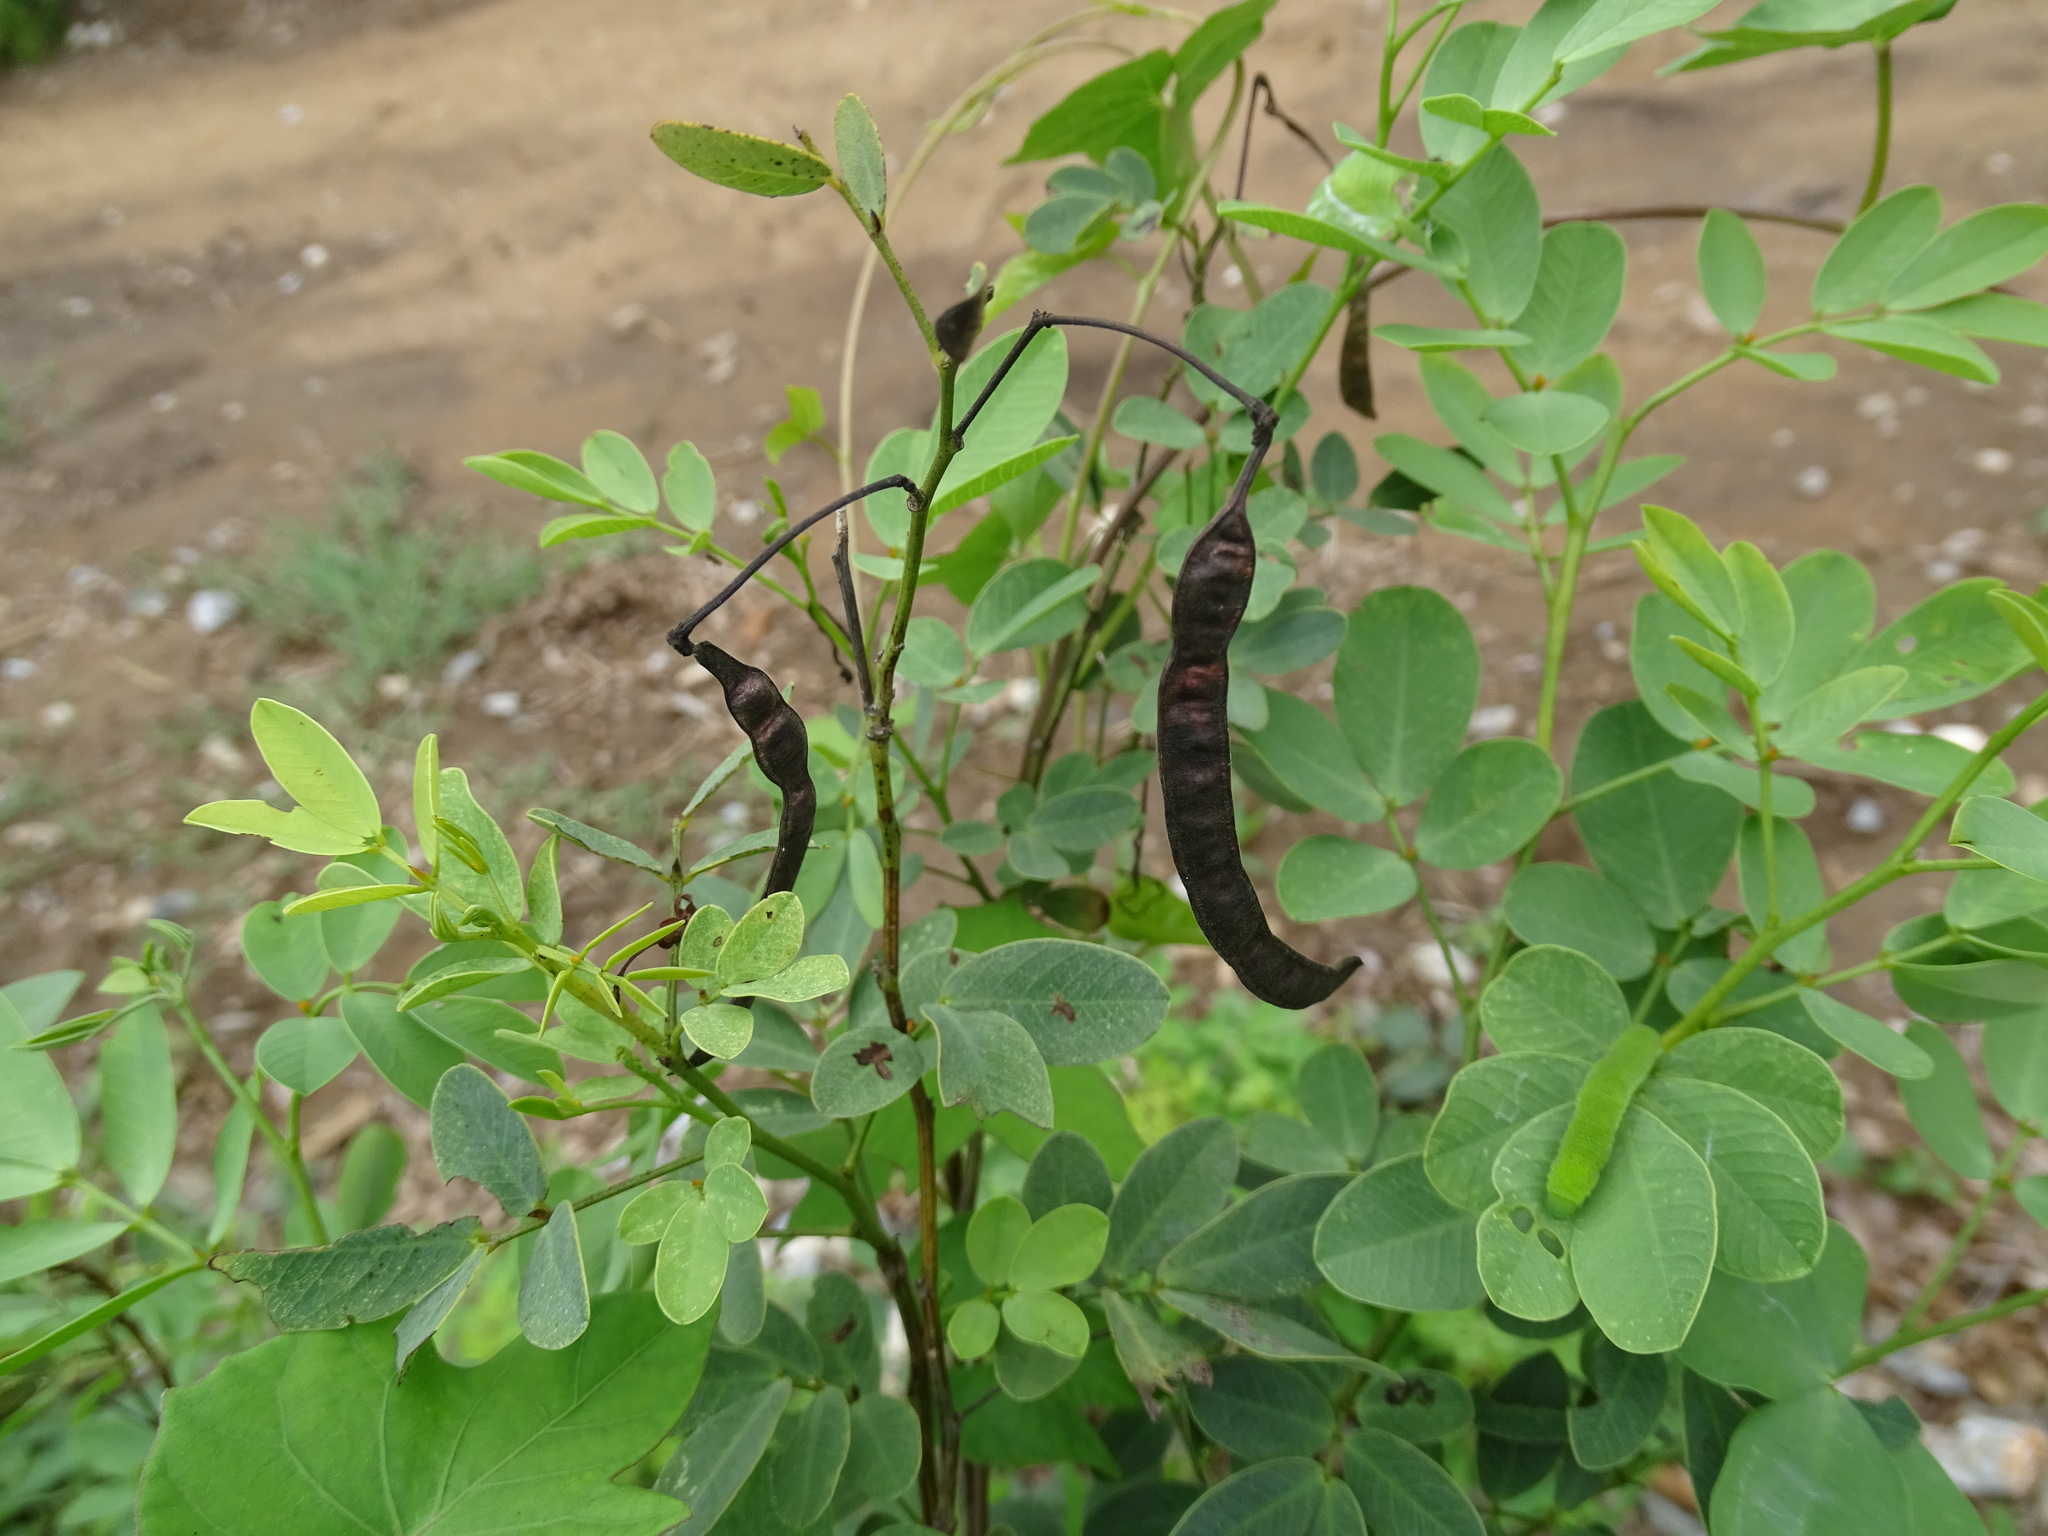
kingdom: Plantae
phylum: Tracheophyta
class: Magnoliopsida
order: Fabales
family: Fabaceae
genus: Senna
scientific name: Senna pallida
